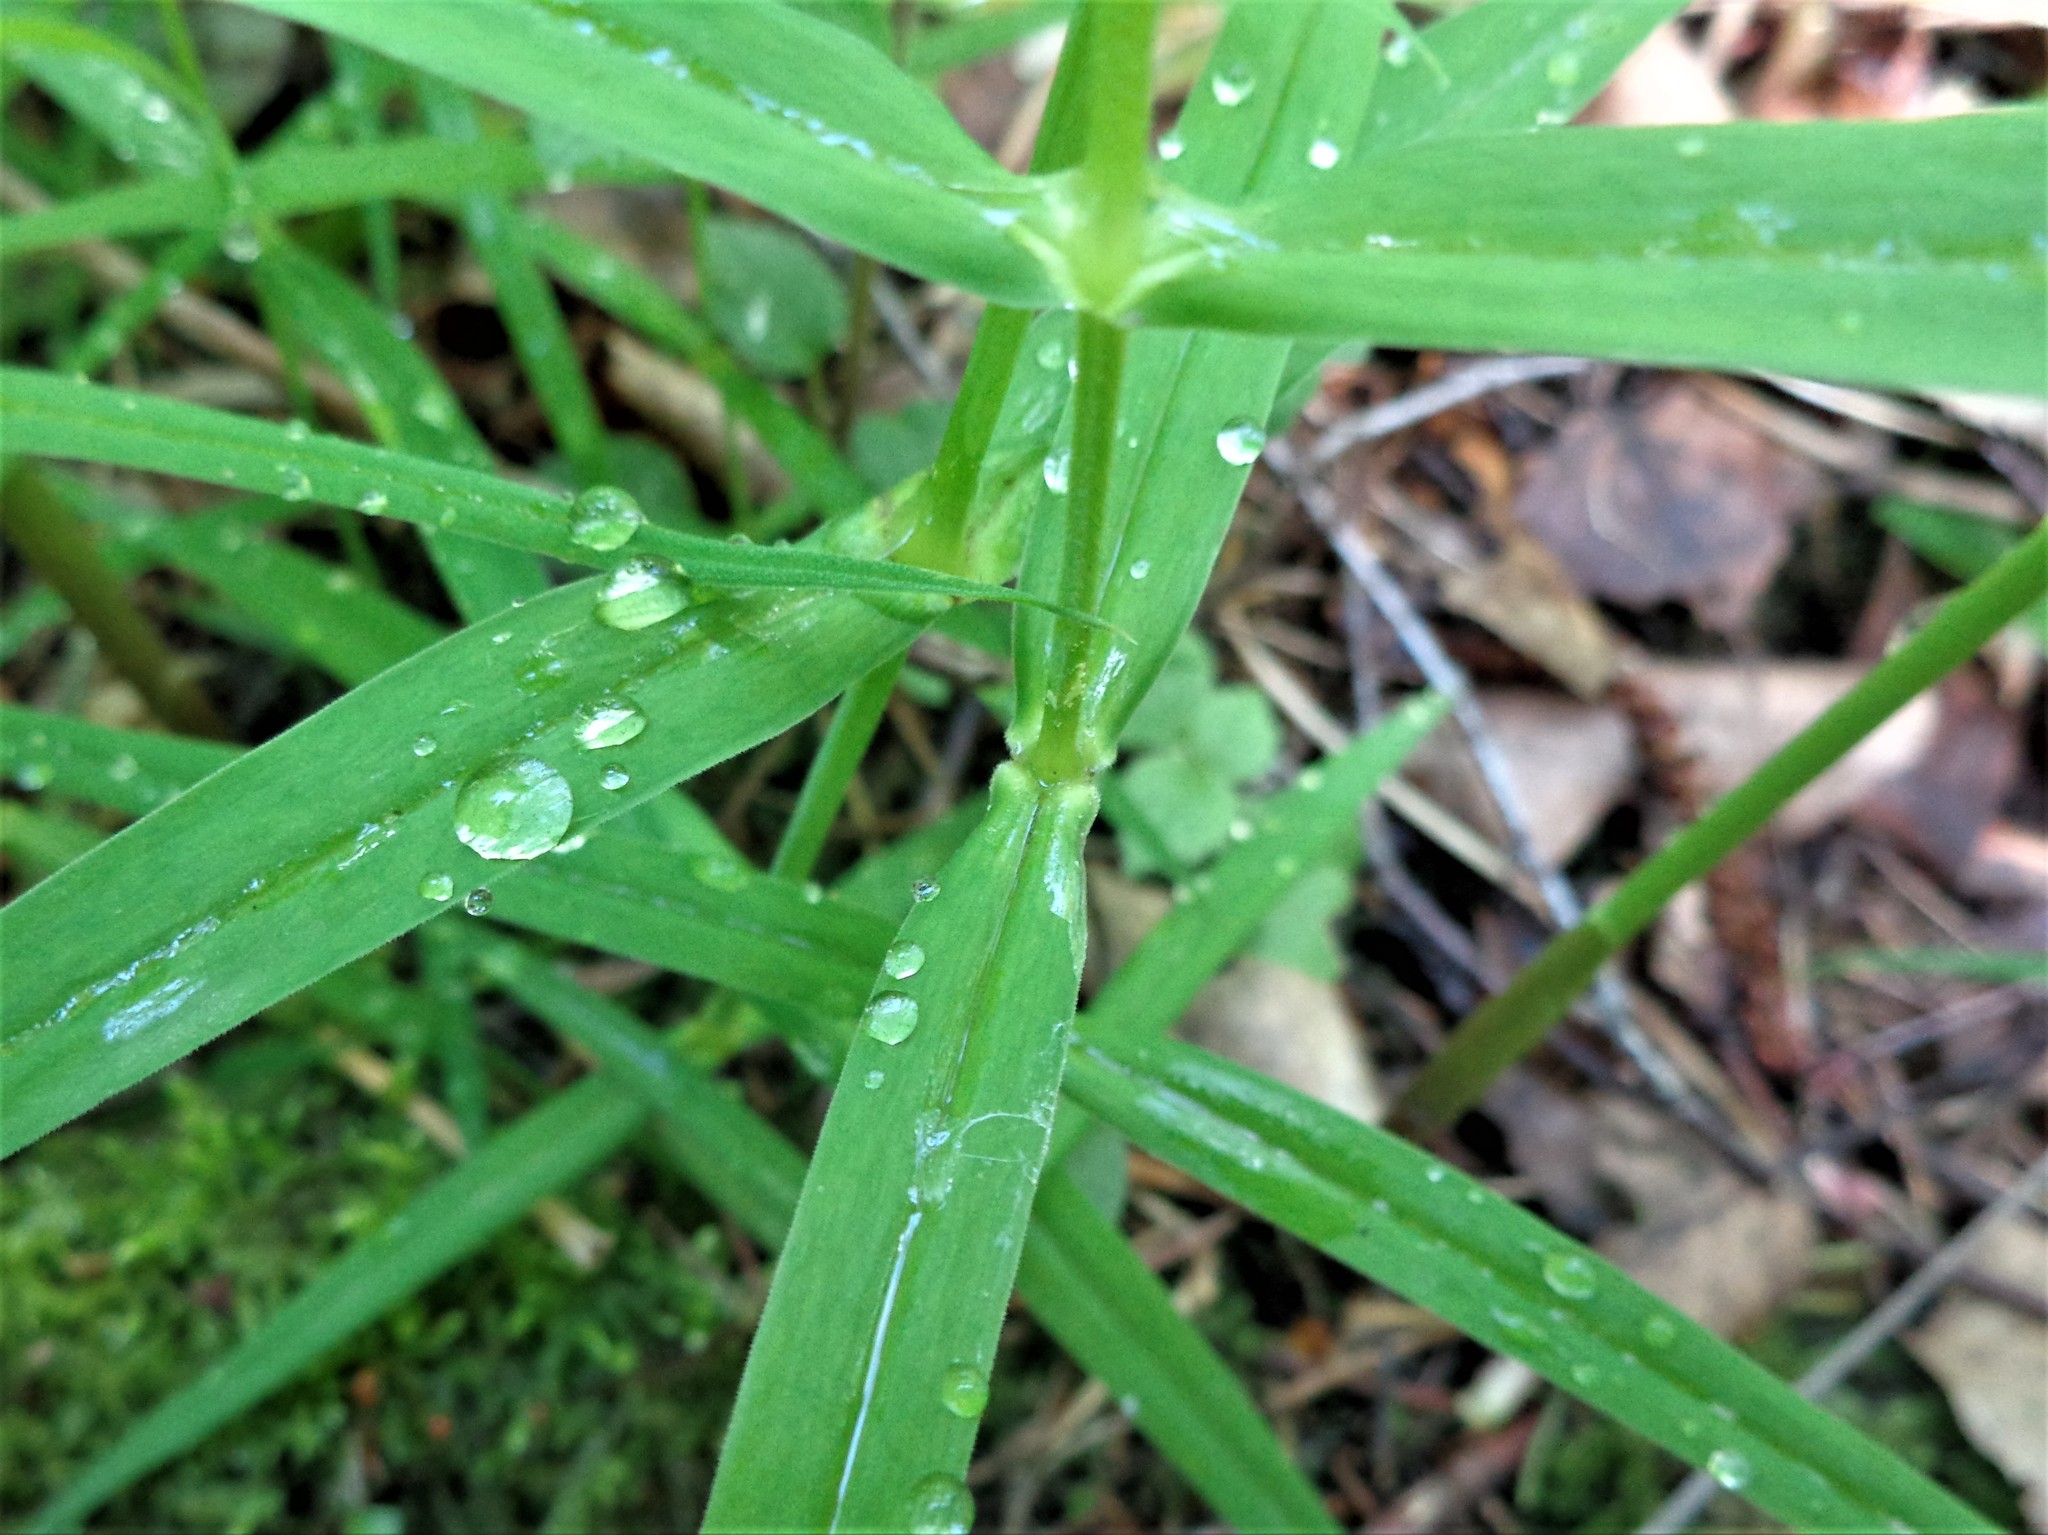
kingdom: Plantae
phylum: Tracheophyta
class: Magnoliopsida
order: Caryophyllales
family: Caryophyllaceae
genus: Rabelera
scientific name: Rabelera holostea
